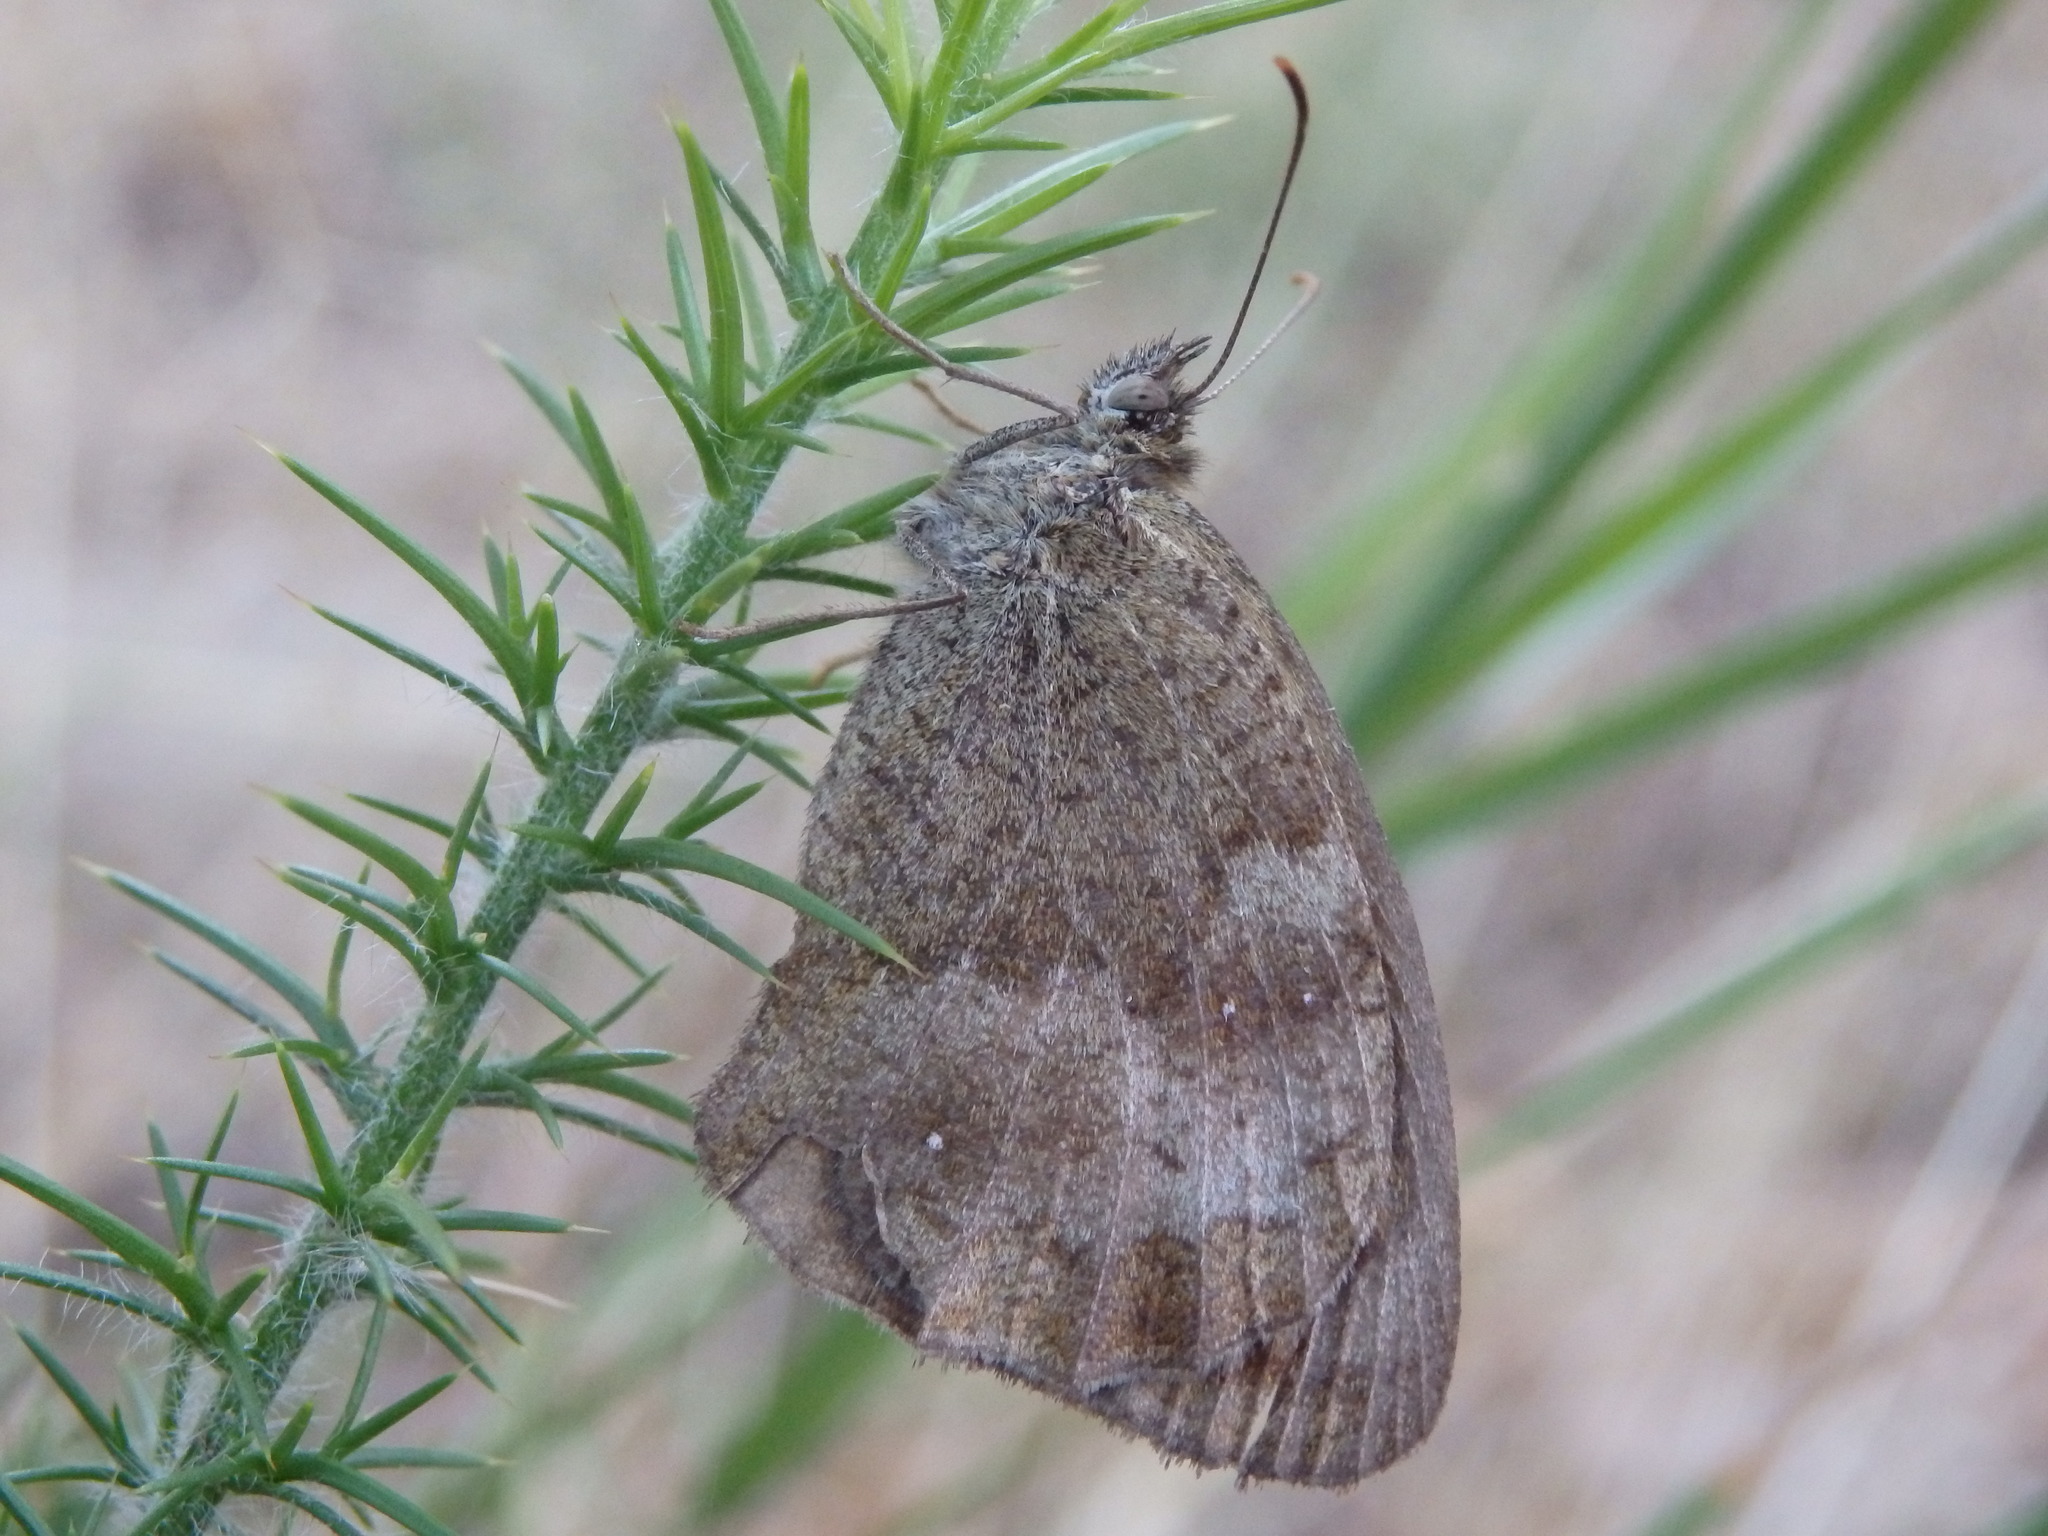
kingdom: Animalia
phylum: Arthropoda
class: Insecta
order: Lepidoptera
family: Nymphalidae
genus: Pyronia
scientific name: Pyronia tithonus
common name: Gatekeeper
